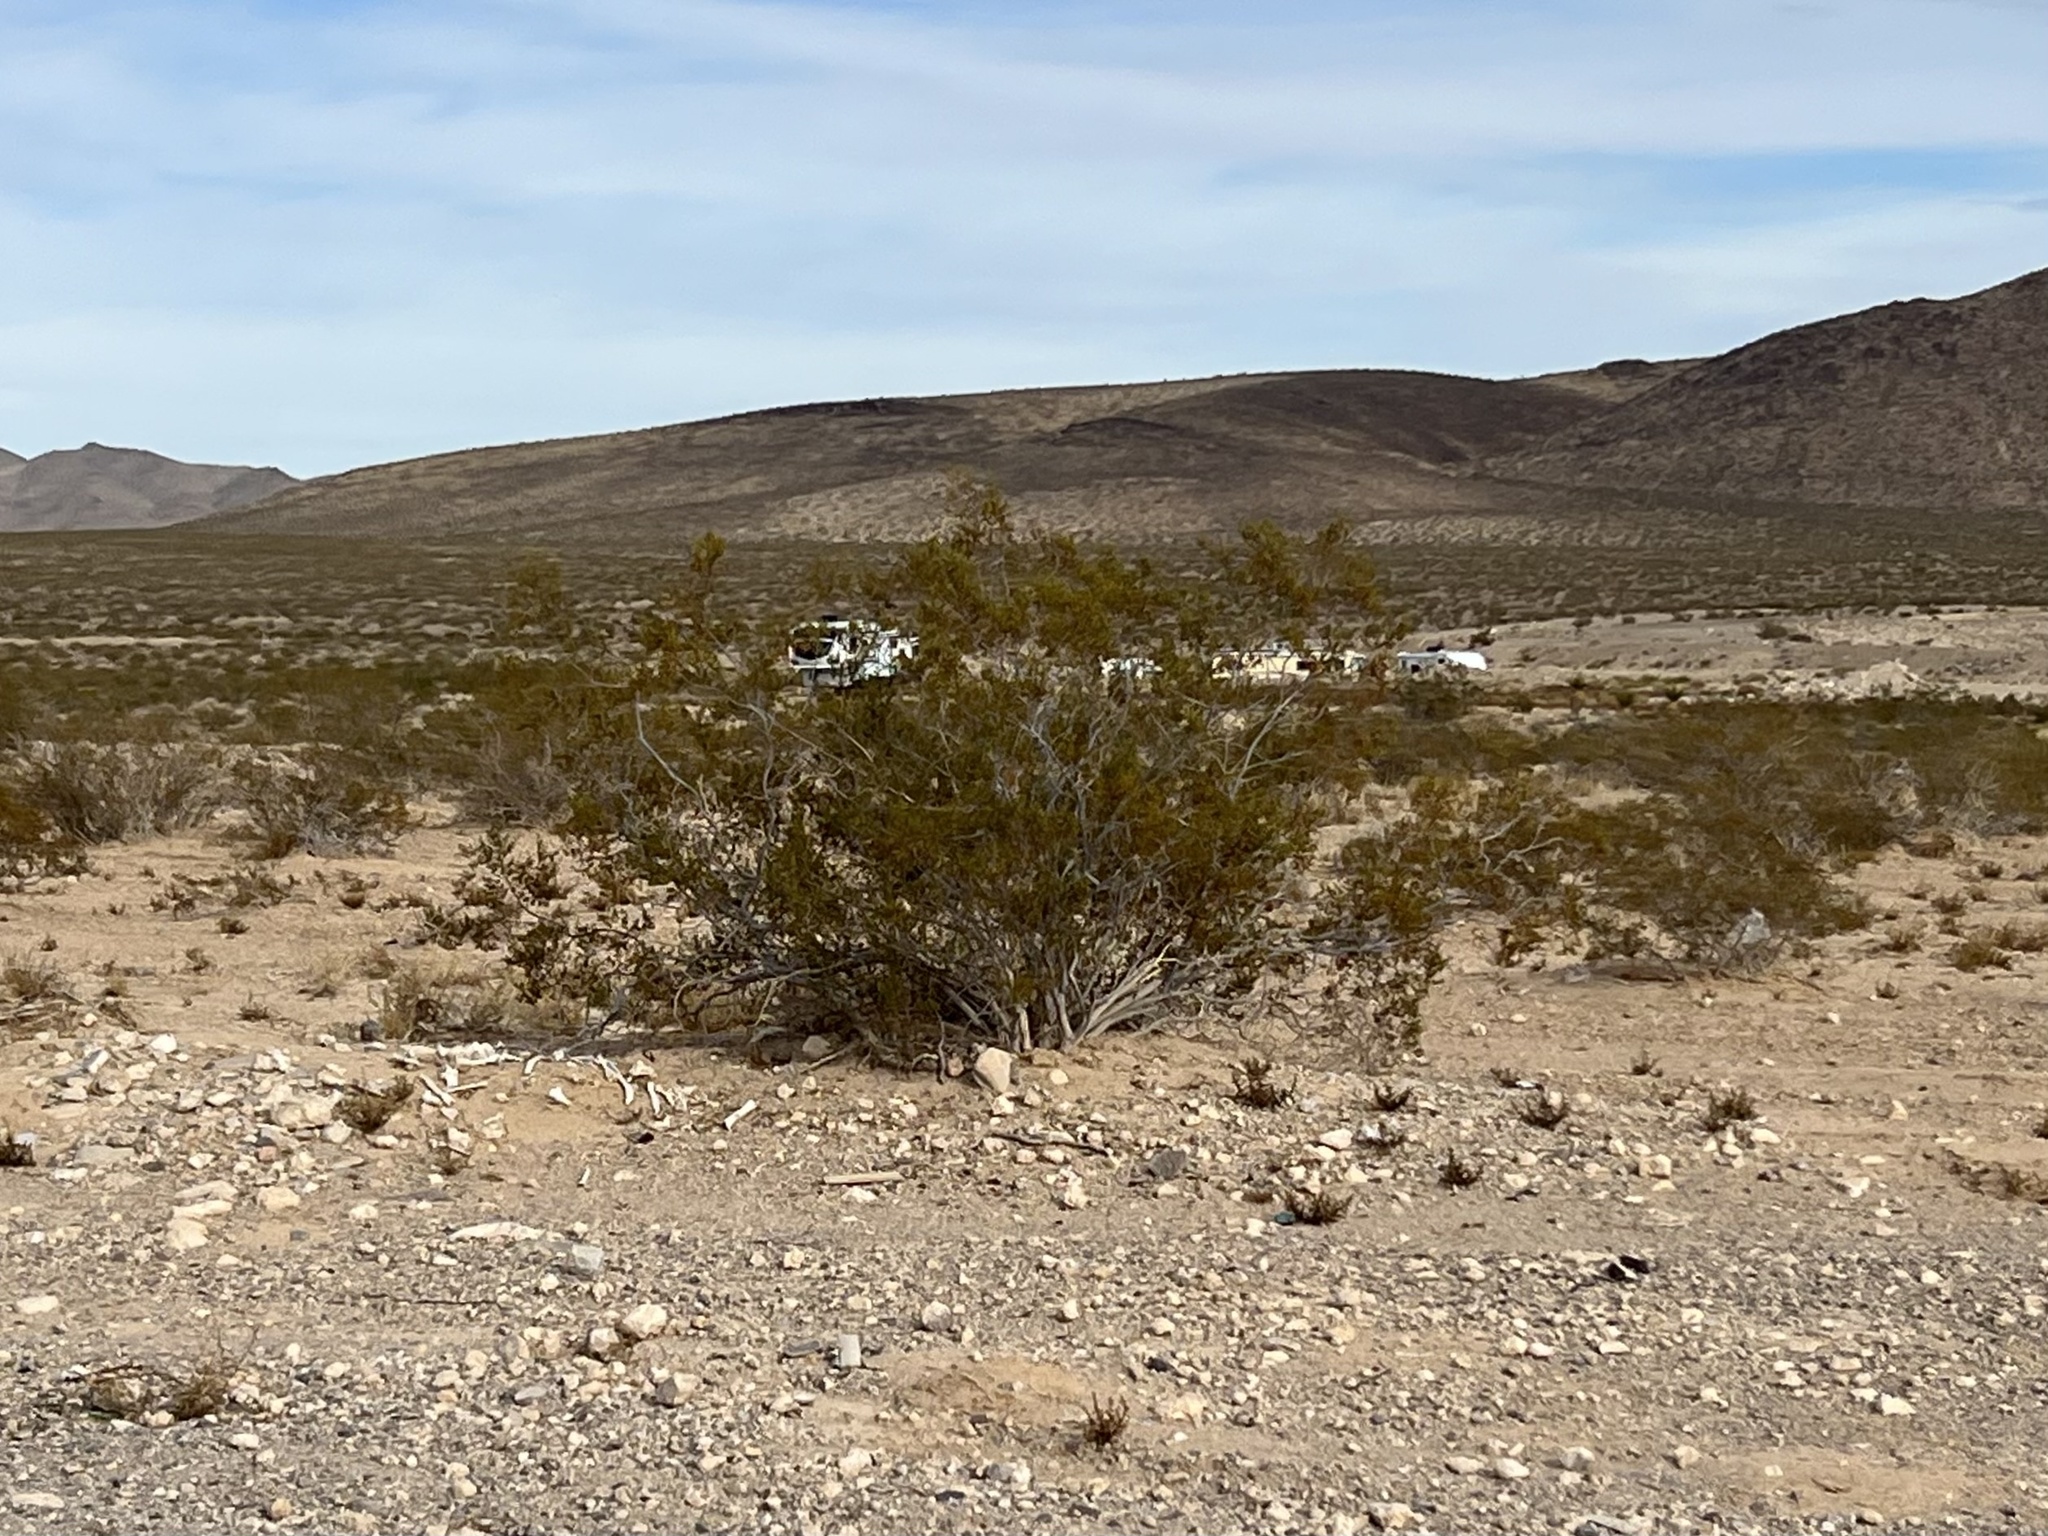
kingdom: Plantae
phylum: Tracheophyta
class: Magnoliopsida
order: Zygophyllales
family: Zygophyllaceae
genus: Larrea
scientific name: Larrea tridentata
